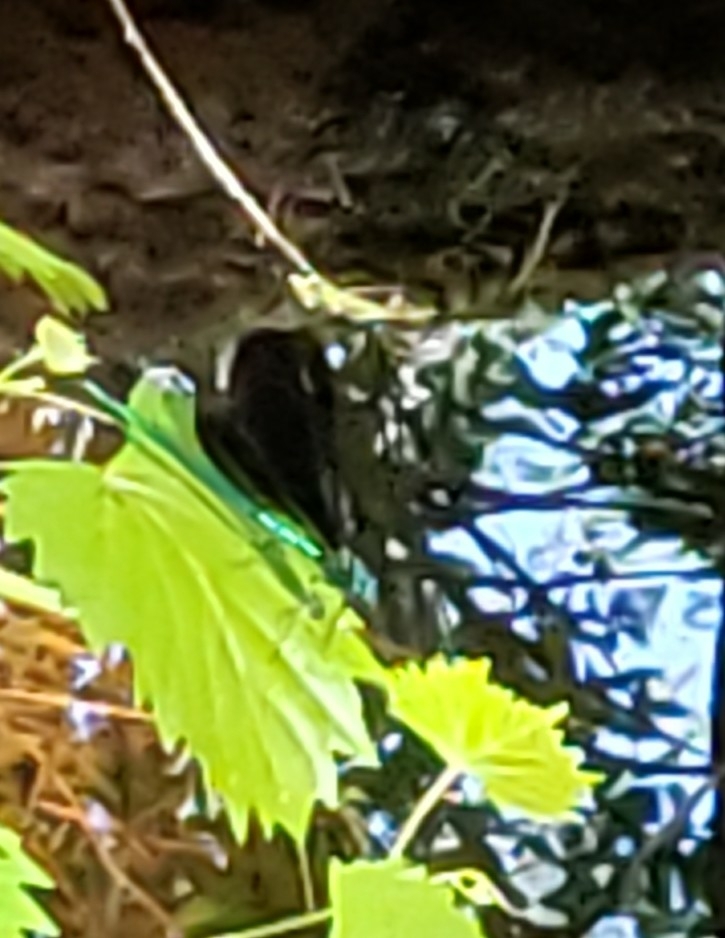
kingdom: Animalia
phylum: Arthropoda
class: Insecta
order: Odonata
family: Calopterygidae
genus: Calopteryx
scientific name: Calopteryx maculata
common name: Ebony jewelwing
